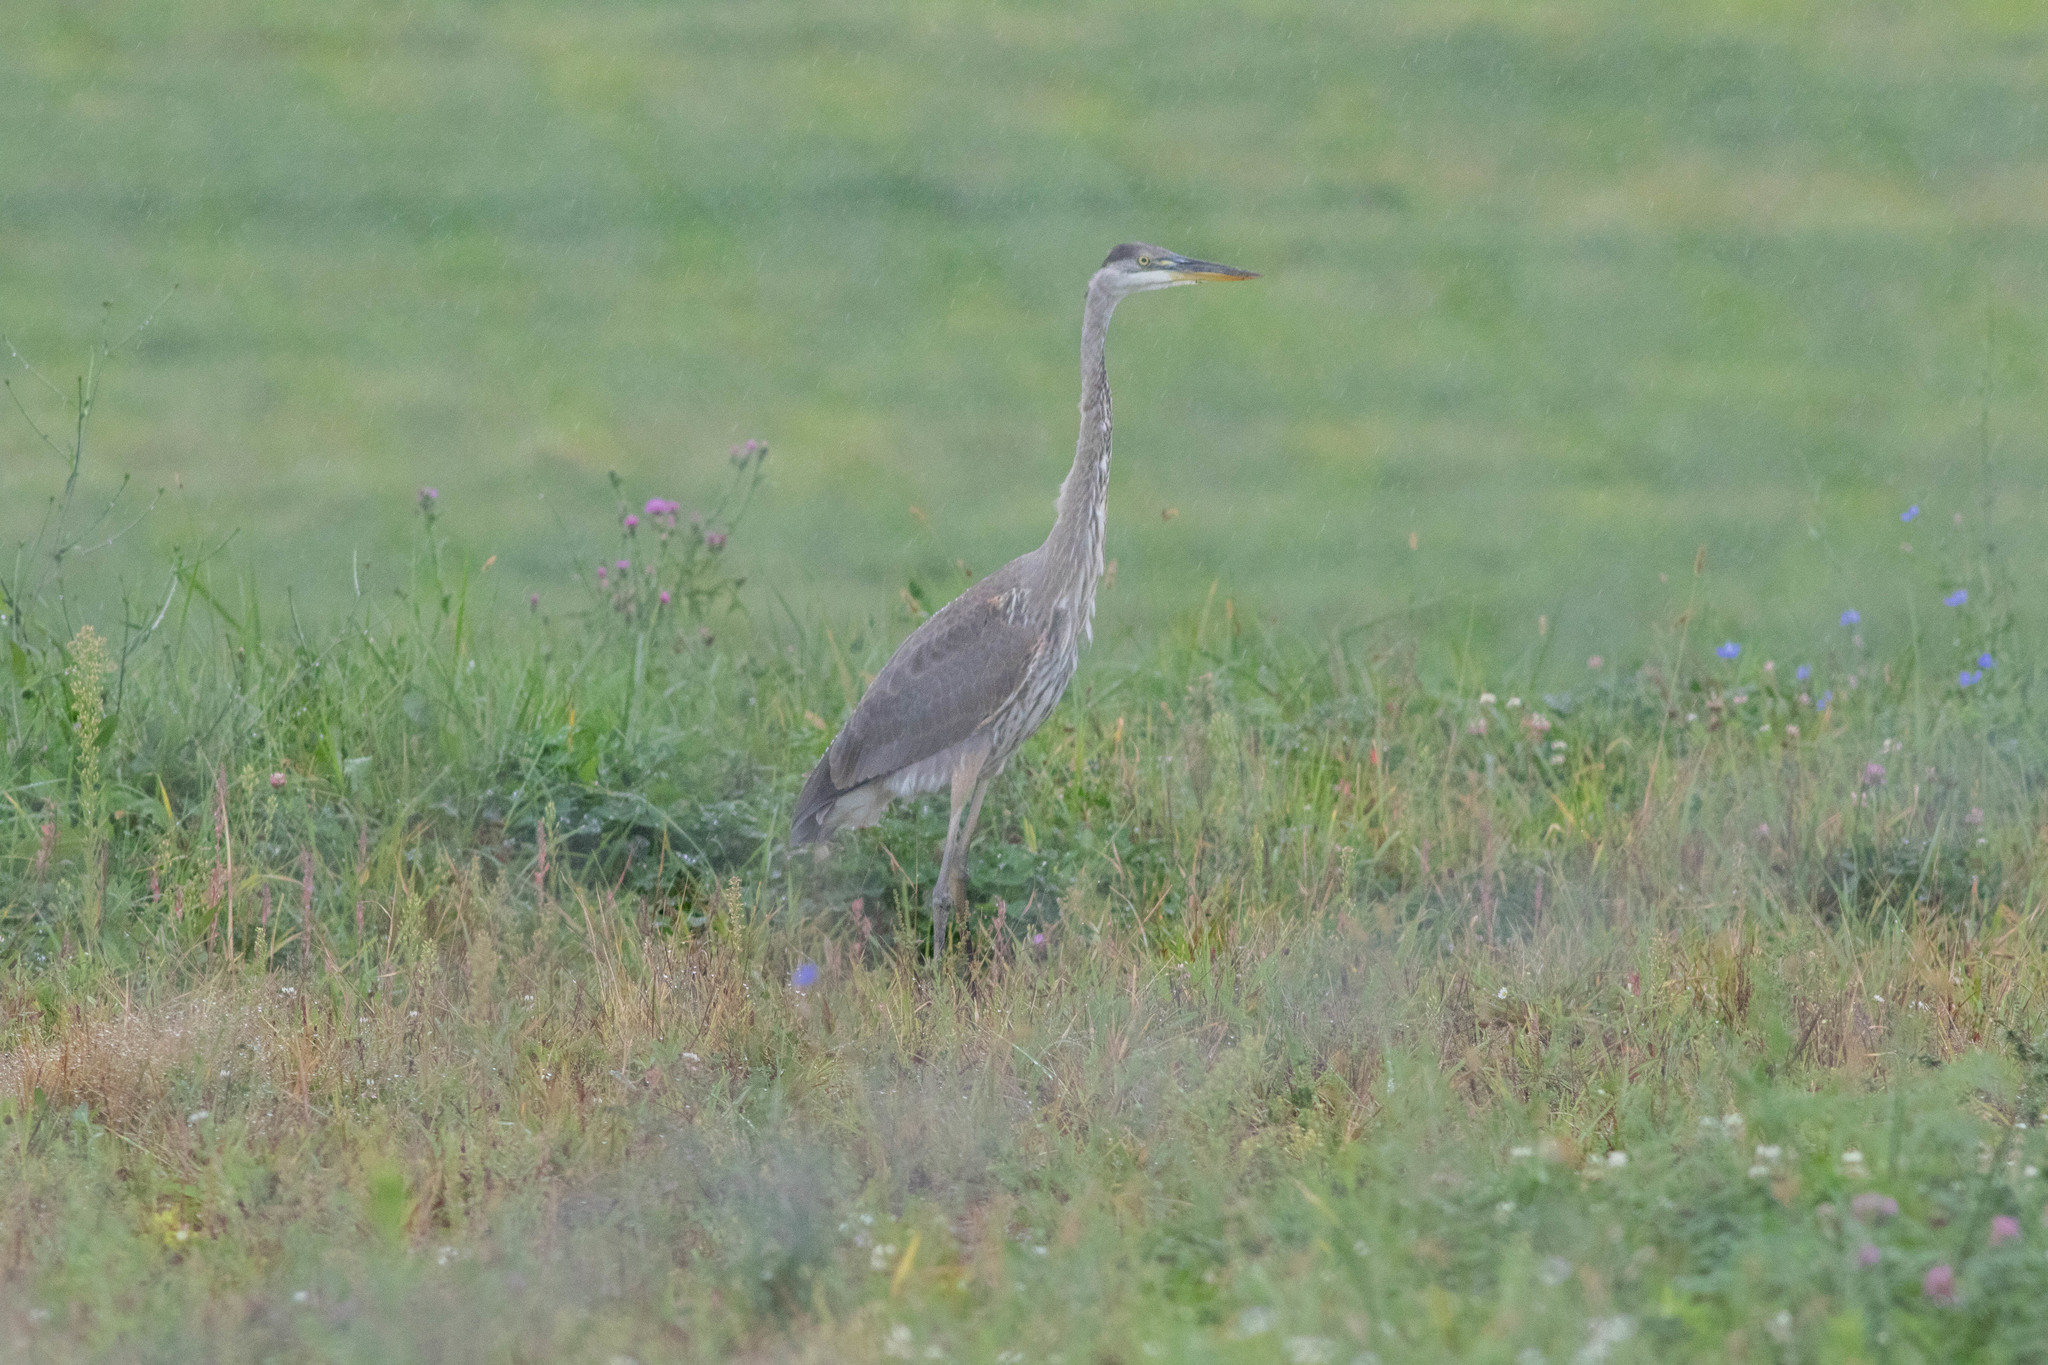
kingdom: Animalia
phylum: Chordata
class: Aves
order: Pelecaniformes
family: Ardeidae
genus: Ardea
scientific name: Ardea herodias
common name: Great blue heron
